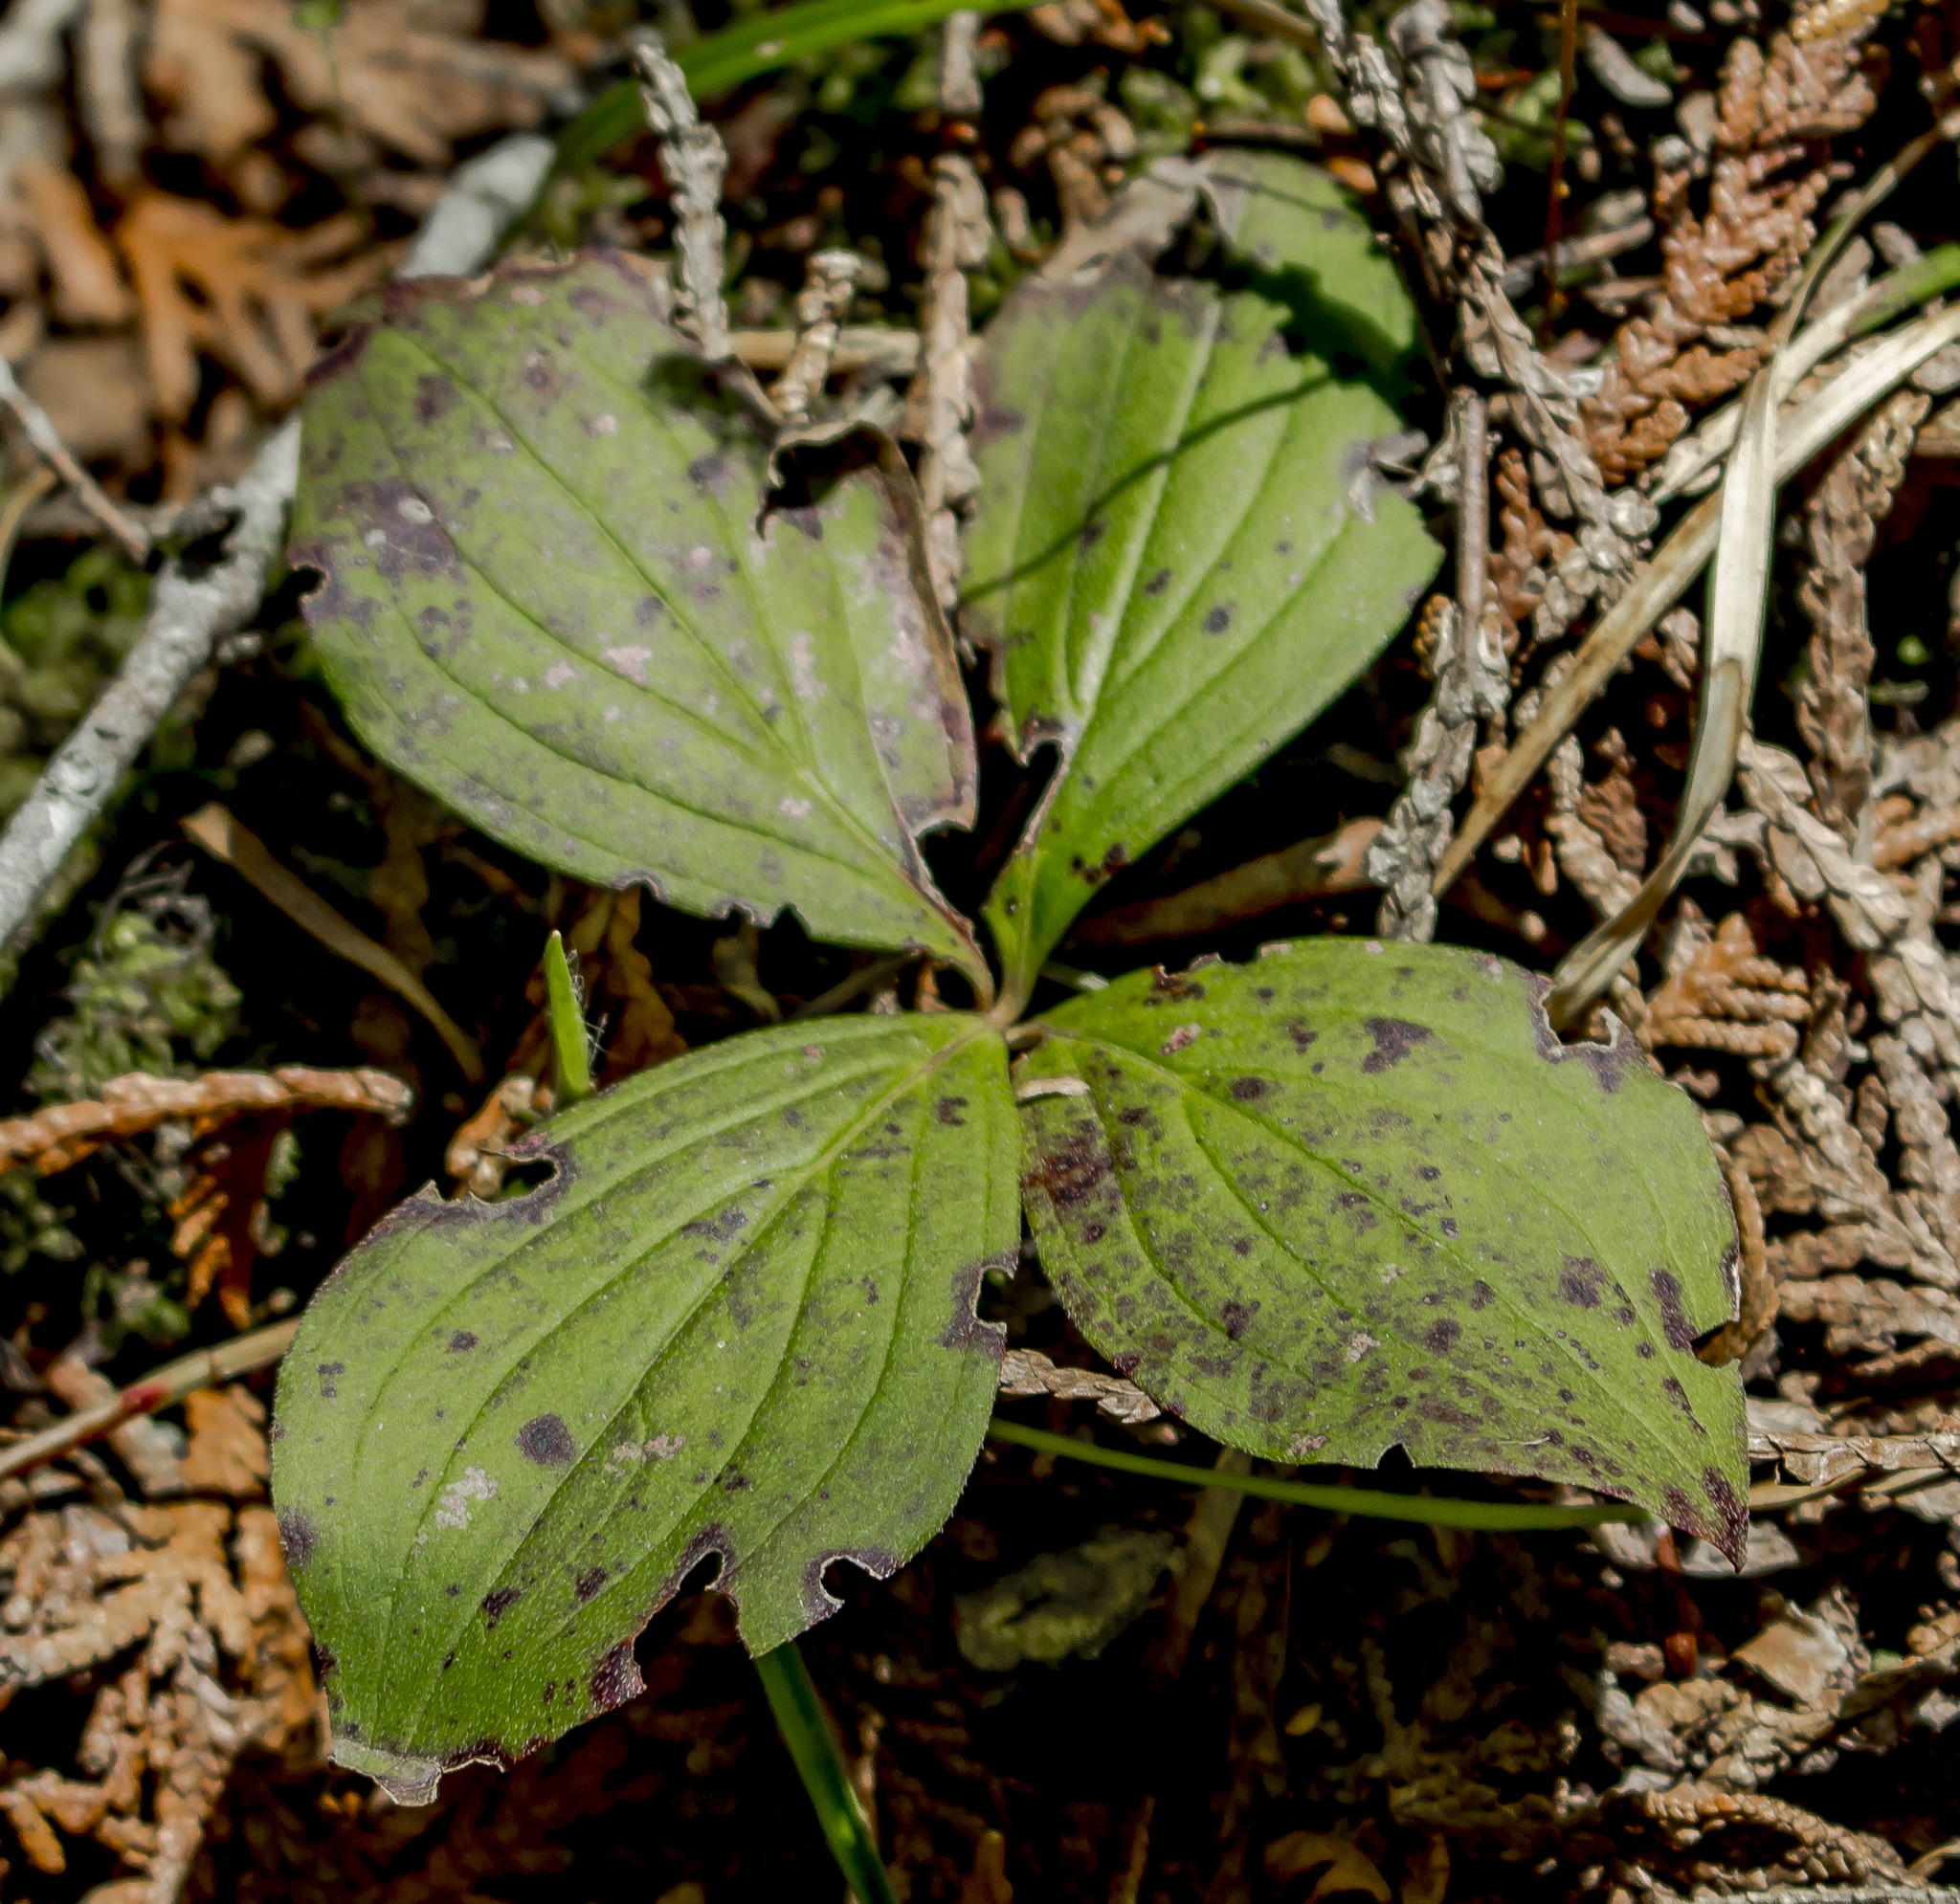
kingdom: Plantae
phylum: Tracheophyta
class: Magnoliopsida
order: Cornales
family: Cornaceae
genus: Cornus
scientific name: Cornus canadensis
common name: Creeping dogwood
